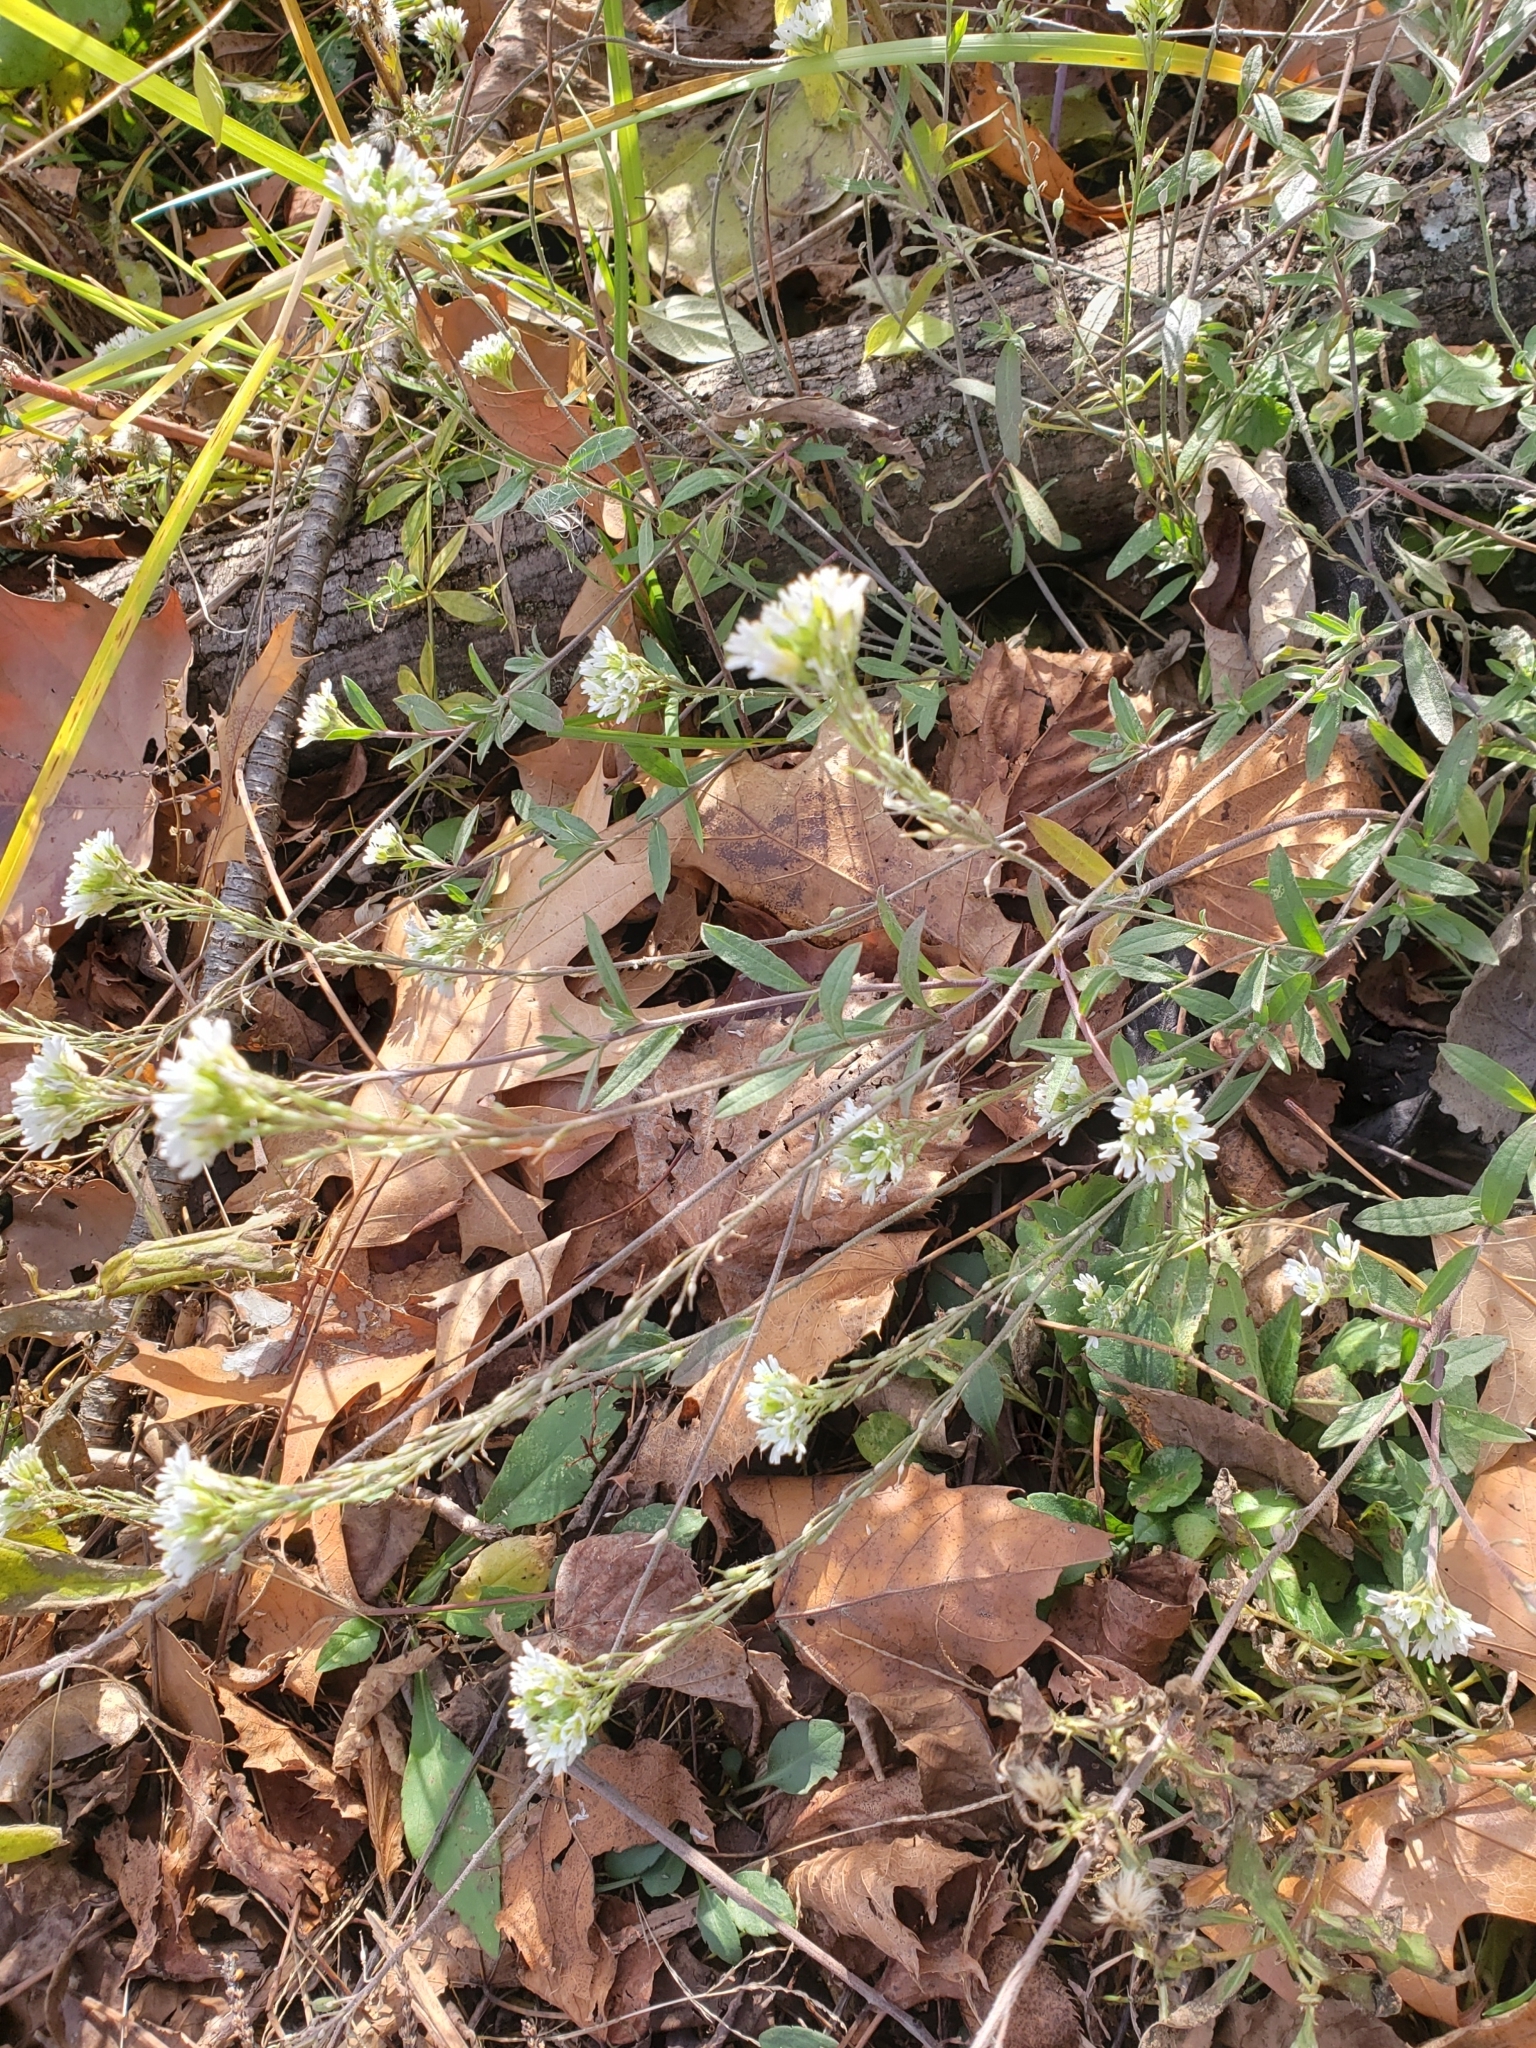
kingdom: Plantae
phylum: Tracheophyta
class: Magnoliopsida
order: Brassicales
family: Brassicaceae
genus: Berteroa
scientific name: Berteroa incana
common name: Hoary alison
